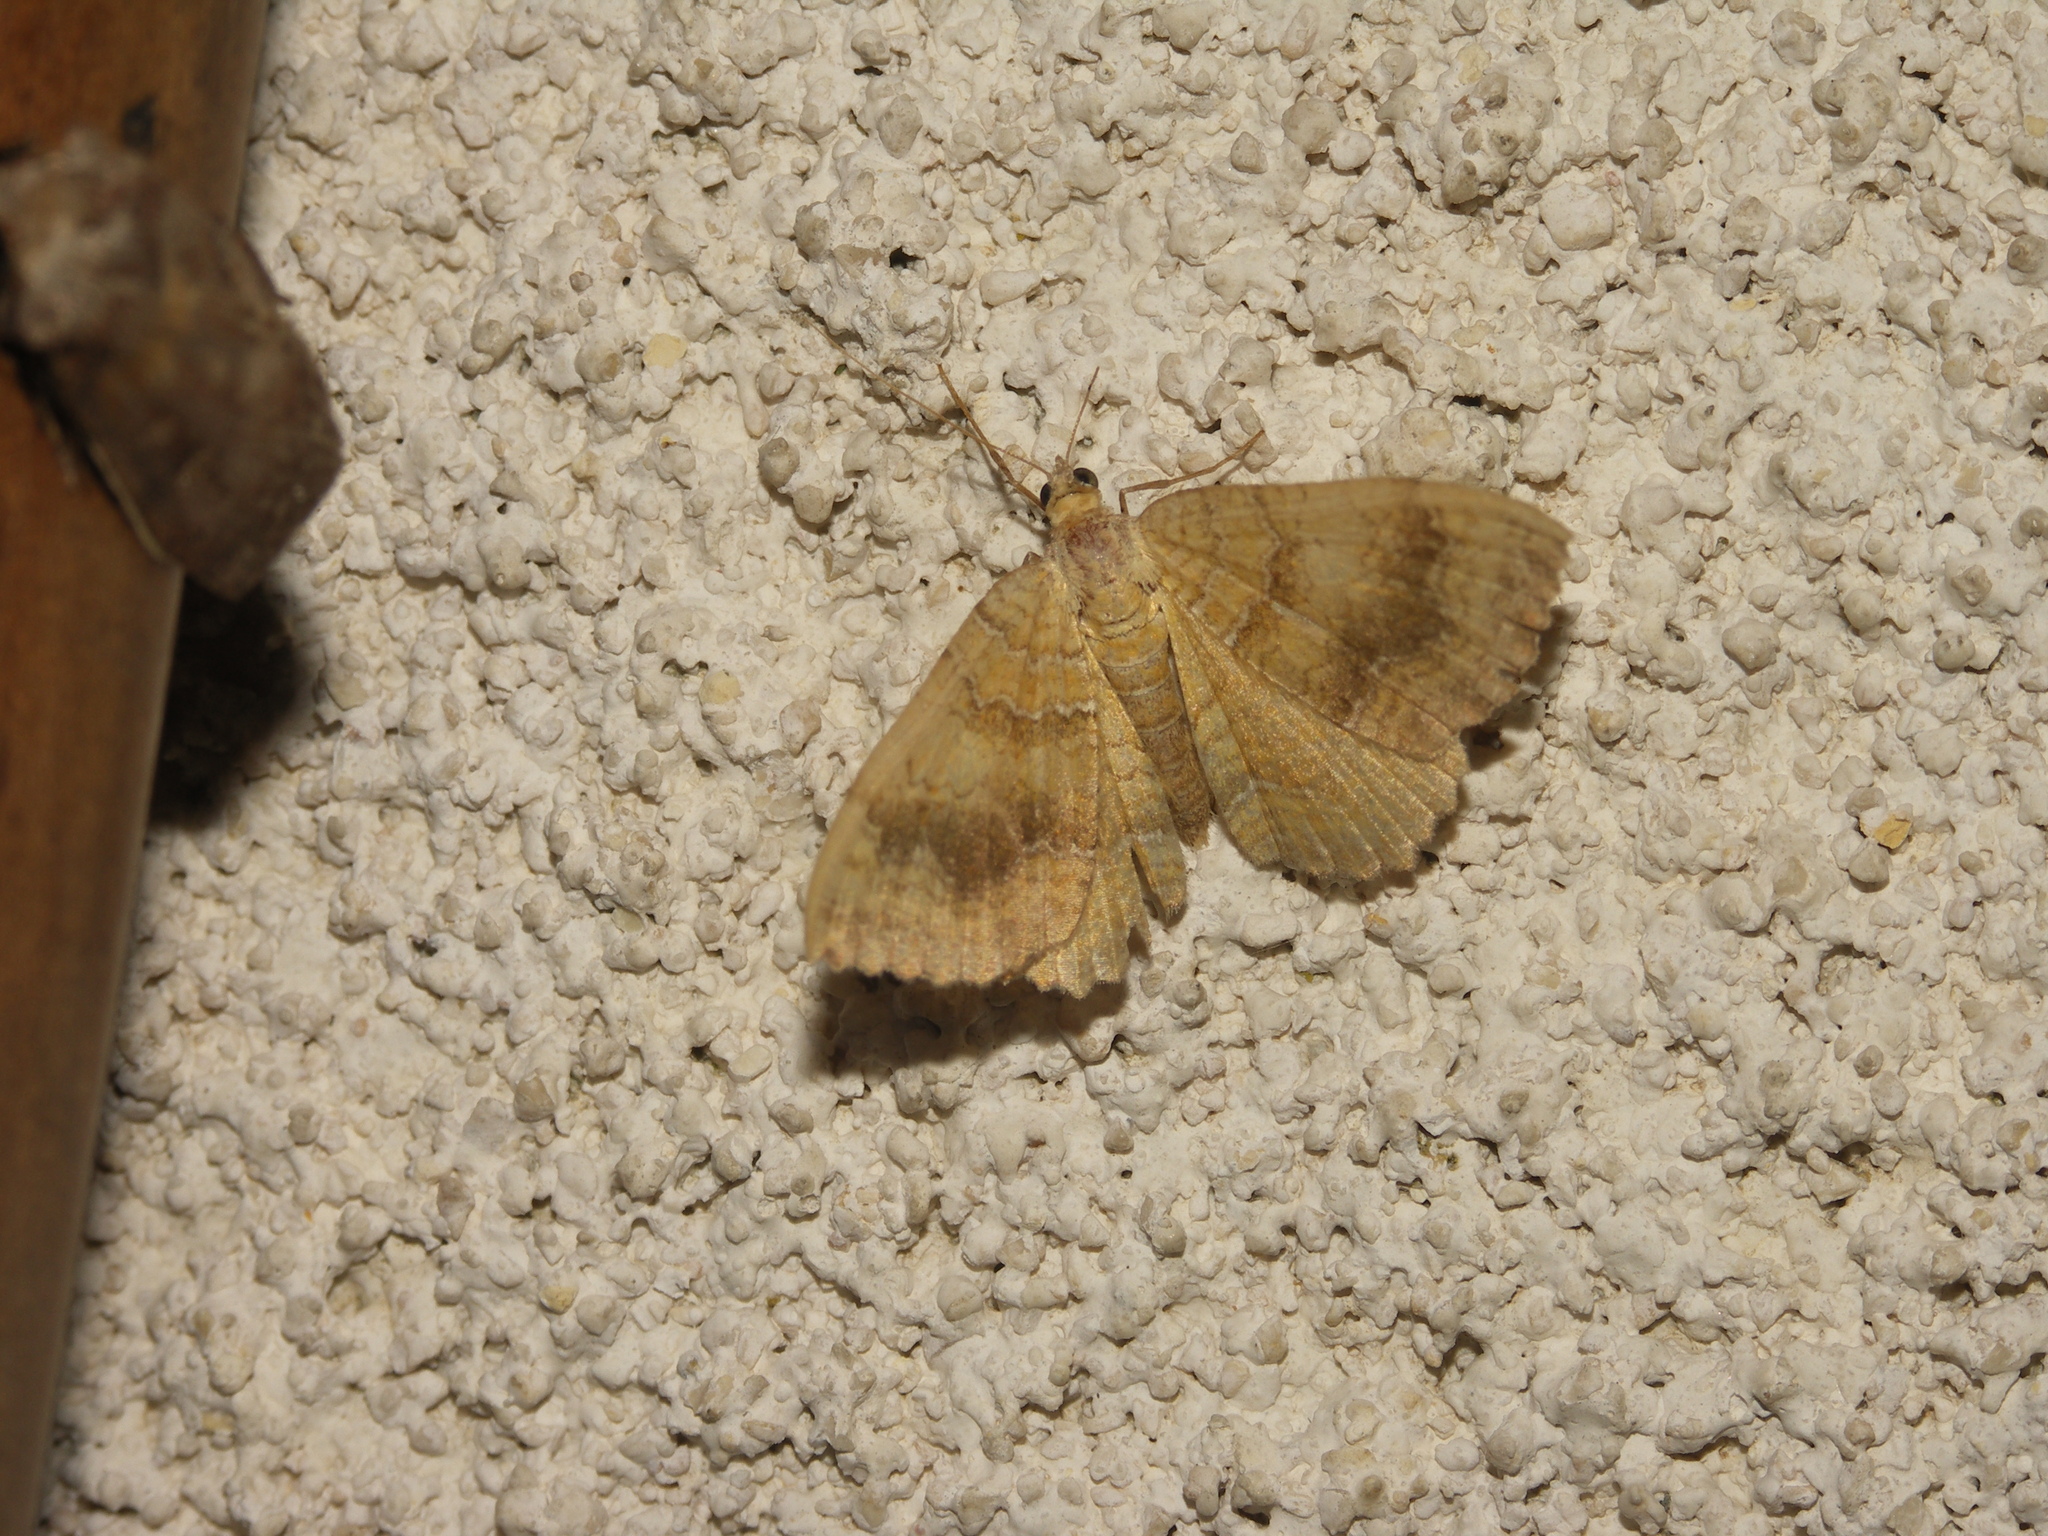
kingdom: Animalia
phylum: Arthropoda
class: Insecta
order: Lepidoptera
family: Geometridae
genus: Camptogramma
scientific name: Camptogramma bilineata
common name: Yellow shell
